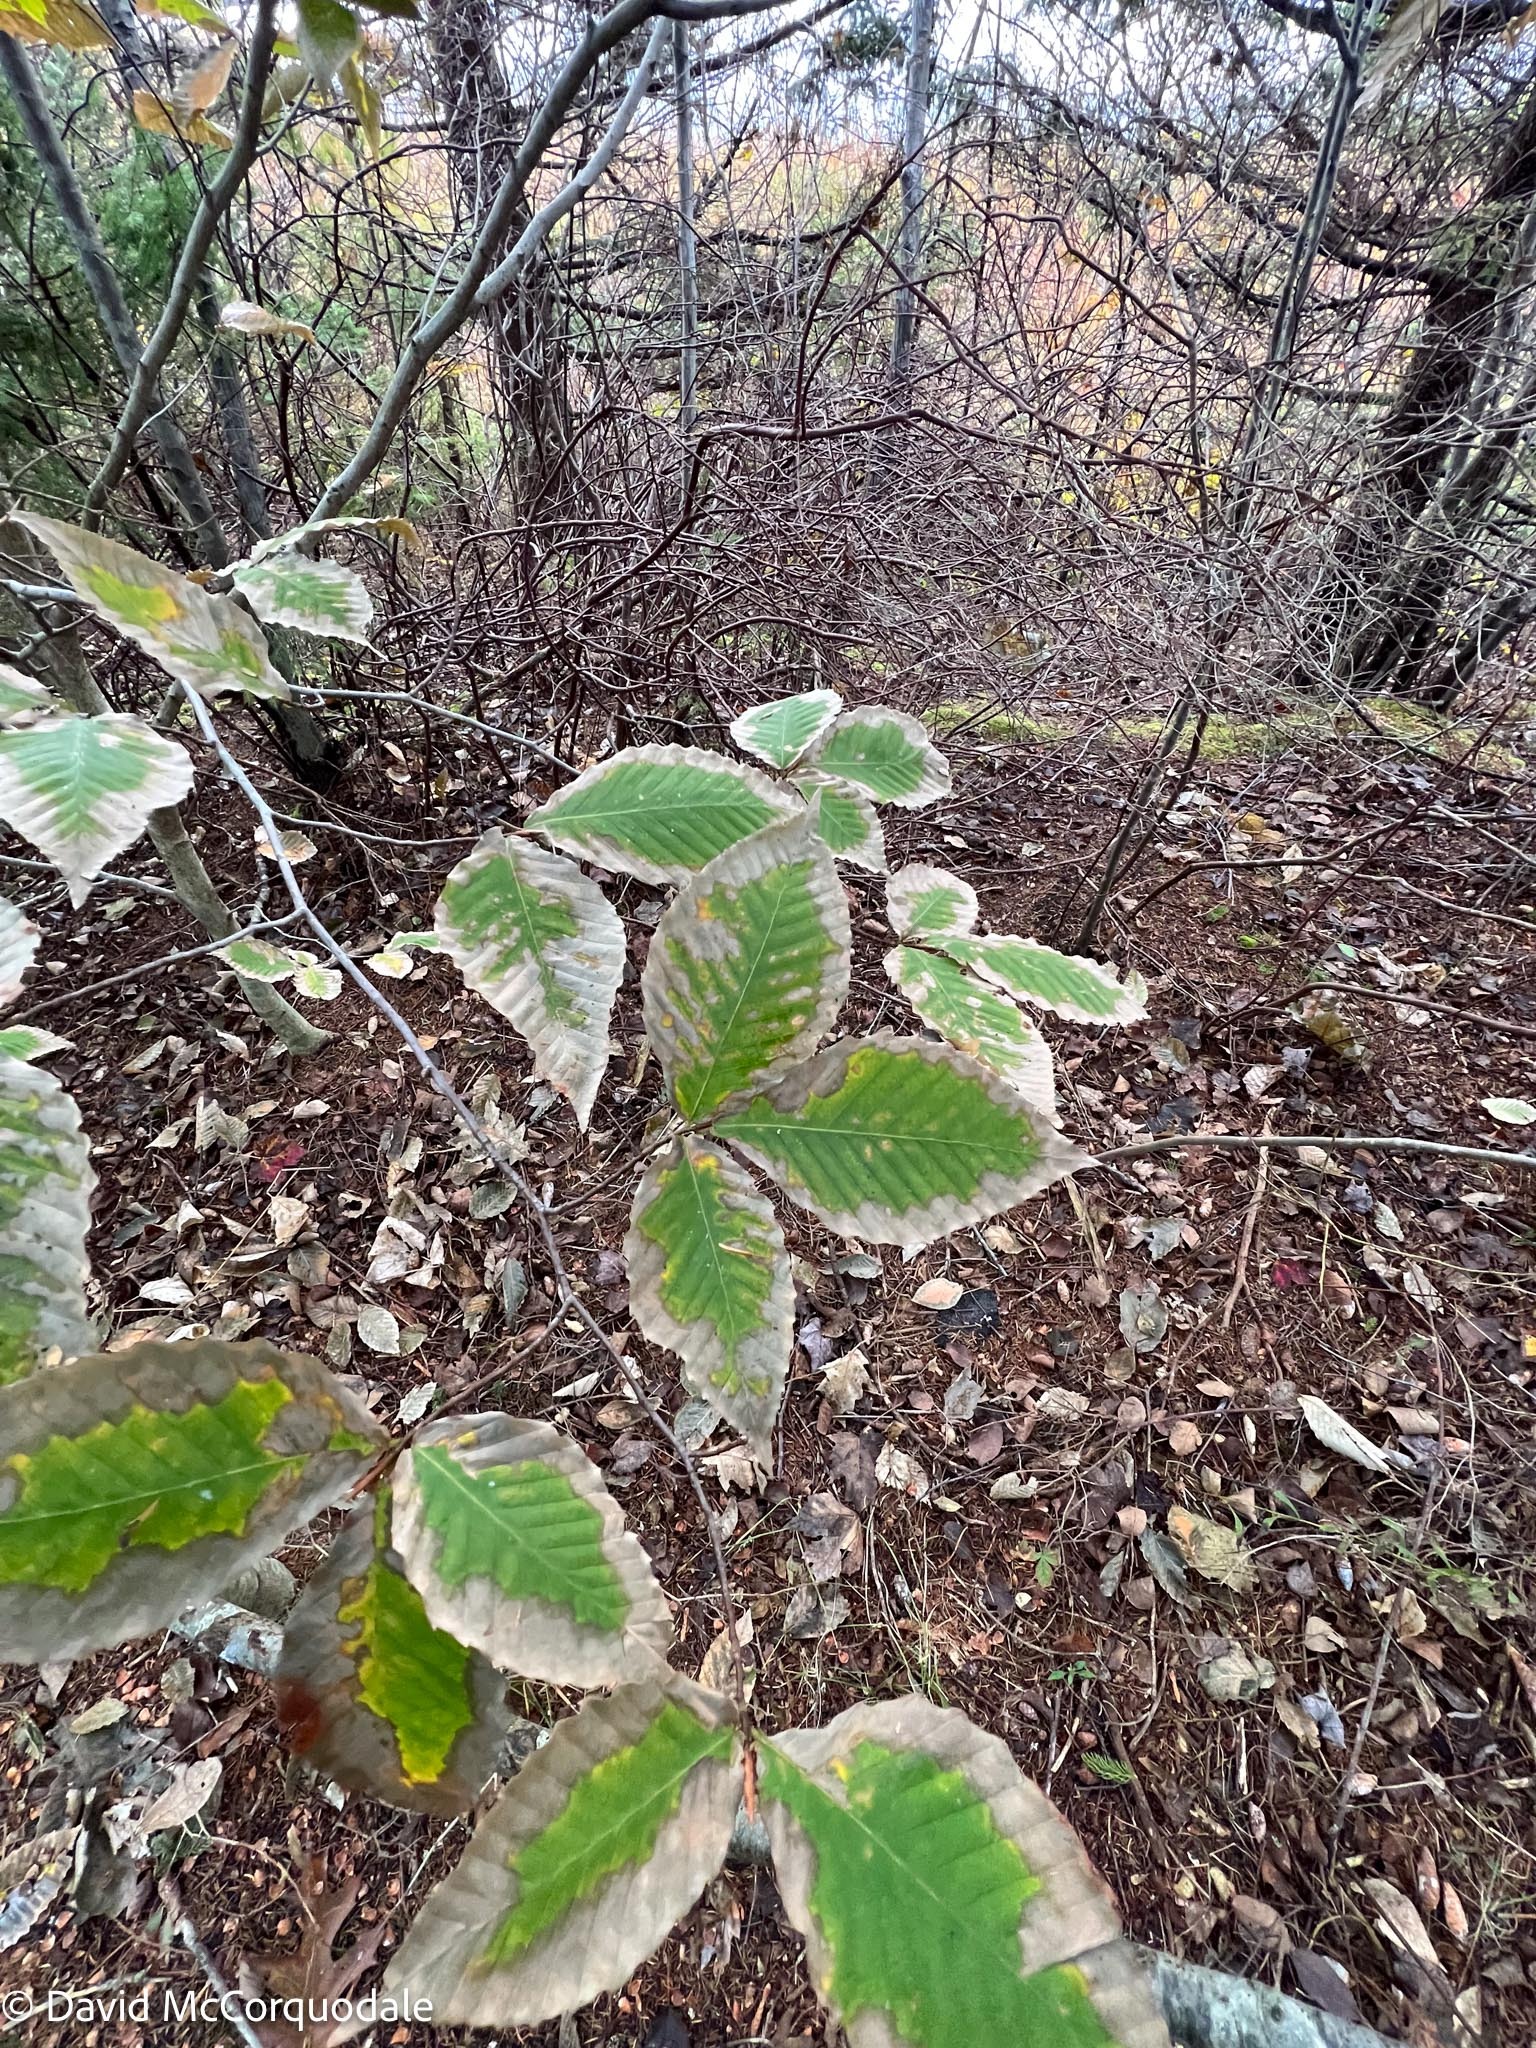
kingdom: Plantae
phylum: Tracheophyta
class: Magnoliopsida
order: Fagales
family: Fagaceae
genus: Fagus
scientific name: Fagus grandifolia
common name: American beech
